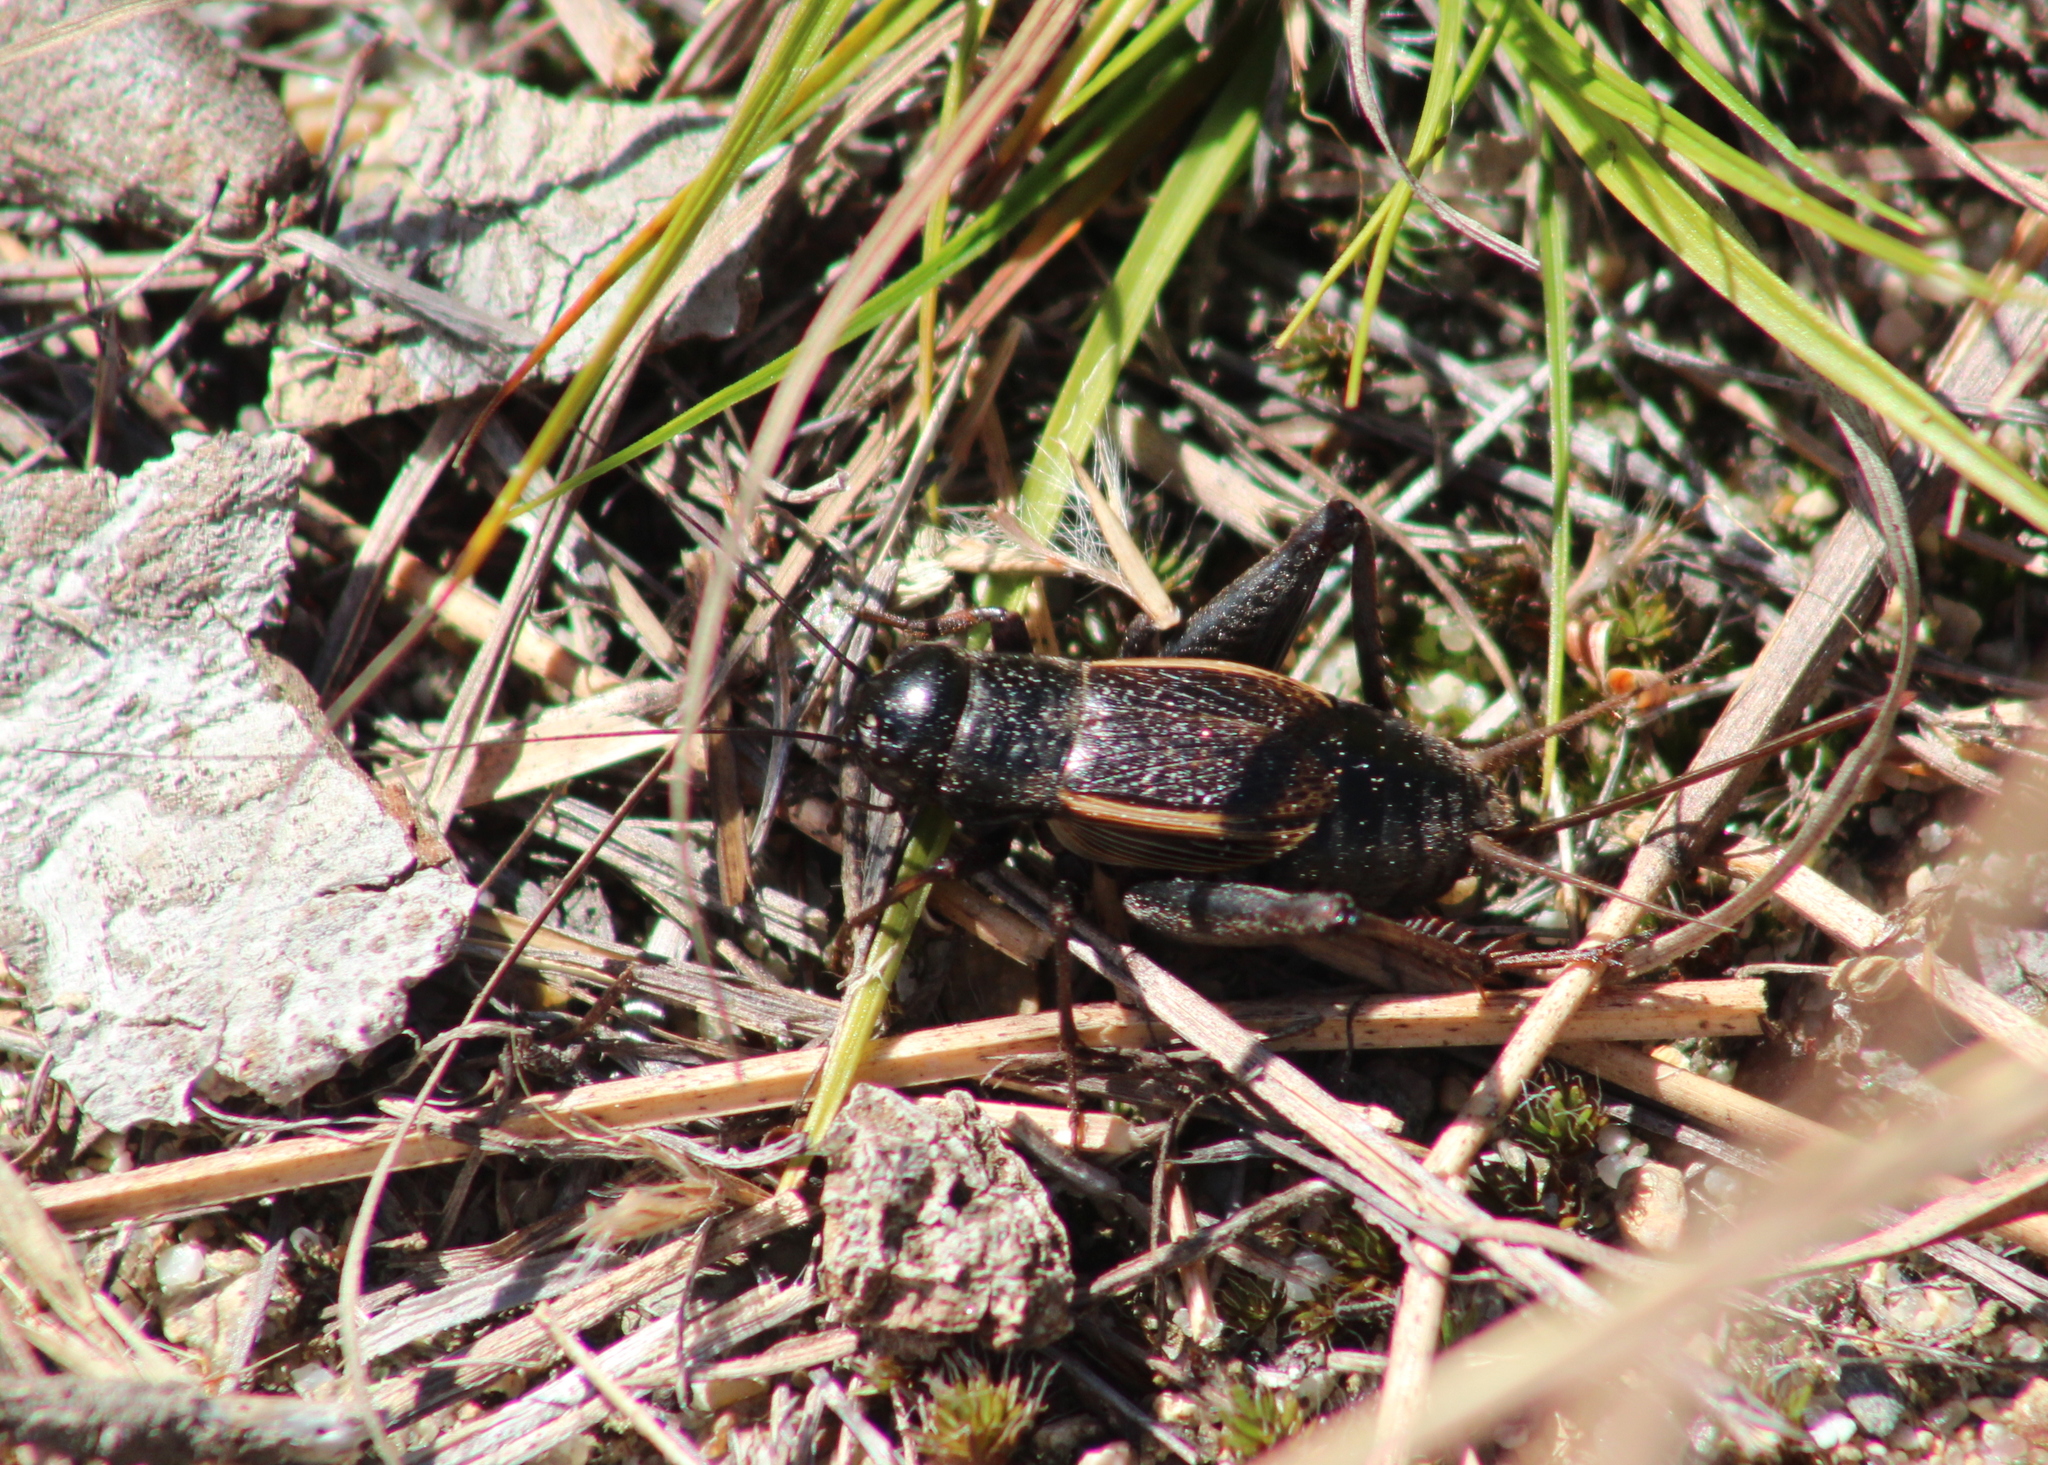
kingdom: Animalia
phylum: Arthropoda
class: Insecta
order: Orthoptera
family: Gryllidae
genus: Gryllus
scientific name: Gryllus pennsylvanicus
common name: Fall field cricket
